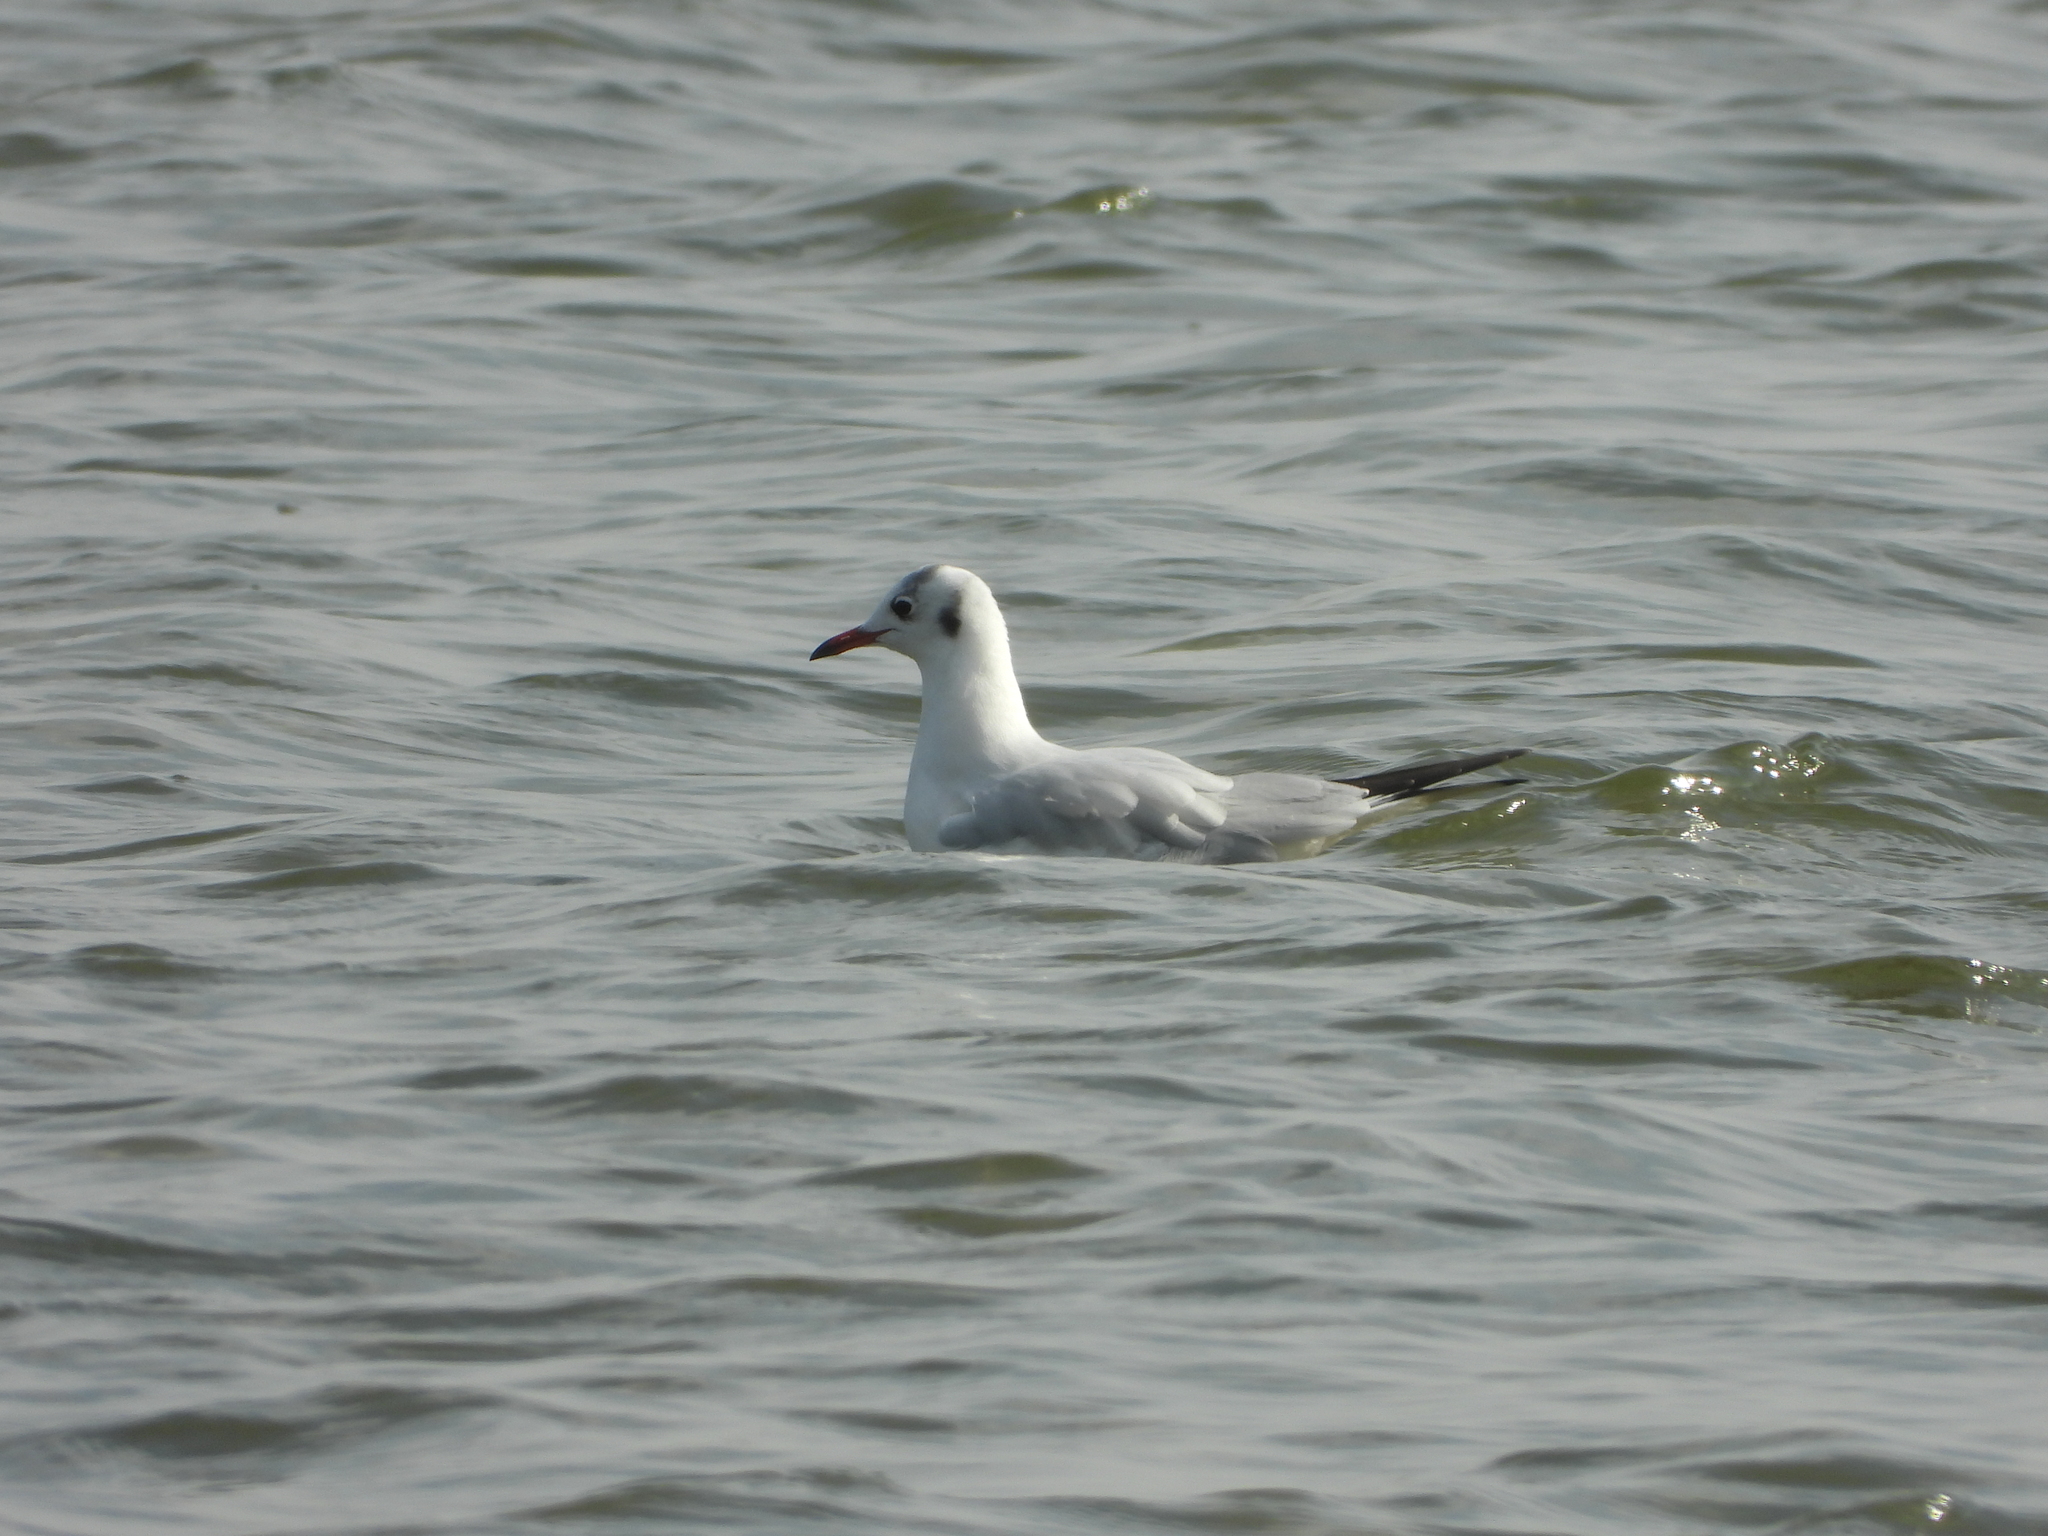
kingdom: Animalia
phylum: Chordata
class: Aves
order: Charadriiformes
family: Laridae
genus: Chroicocephalus
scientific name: Chroicocephalus ridibundus
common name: Black-headed gull
